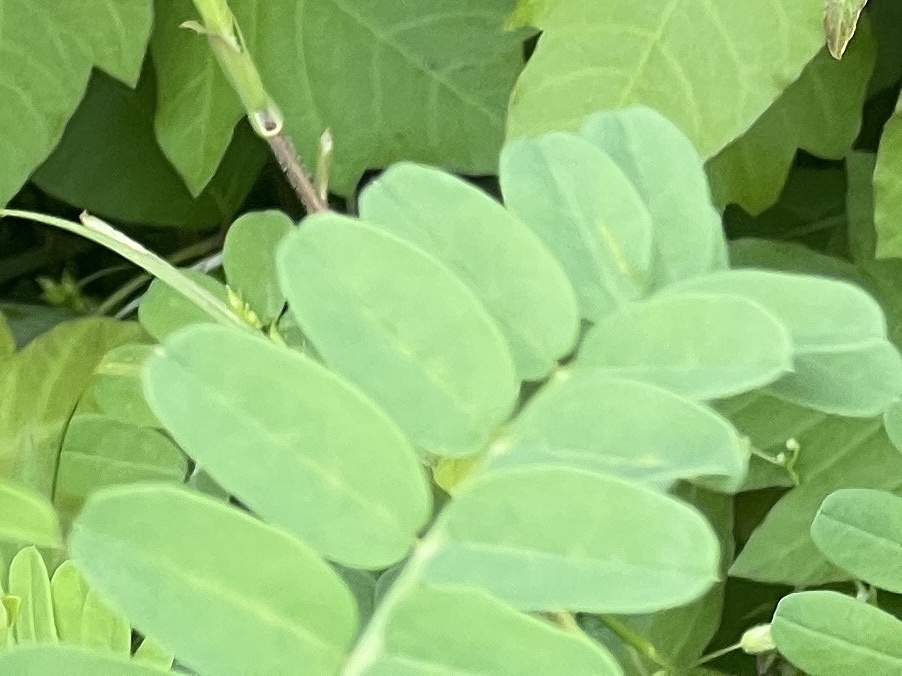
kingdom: Plantae
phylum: Tracheophyta
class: Magnoliopsida
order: Fabales
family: Fabaceae
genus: Coronilla
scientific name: Coronilla varia
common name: Crownvetch
